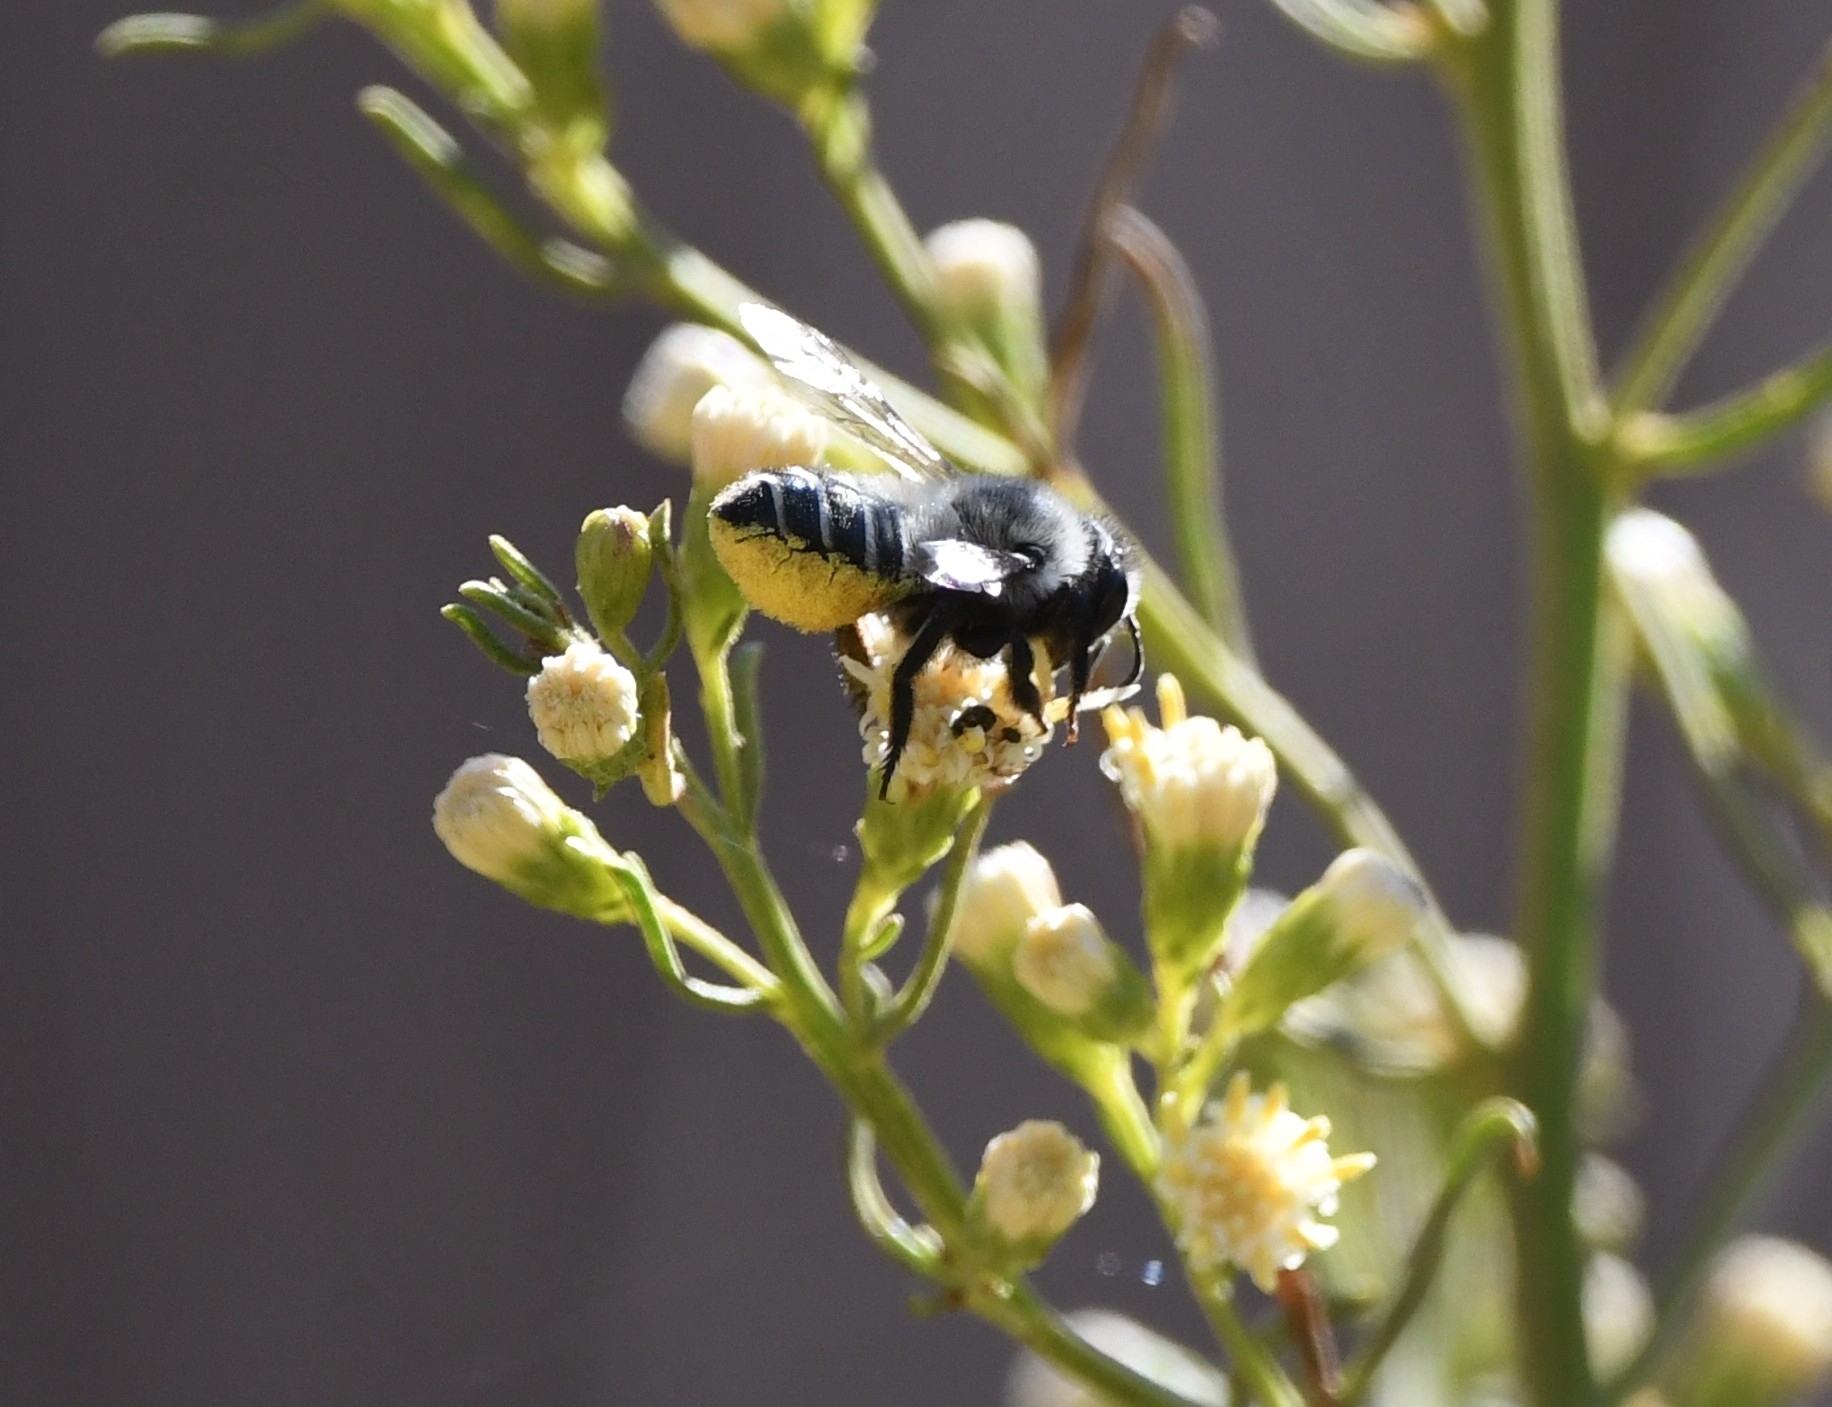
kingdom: Animalia
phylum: Arthropoda
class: Insecta
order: Hymenoptera
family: Megachilidae
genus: Megachile
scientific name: Megachile pollinosa
